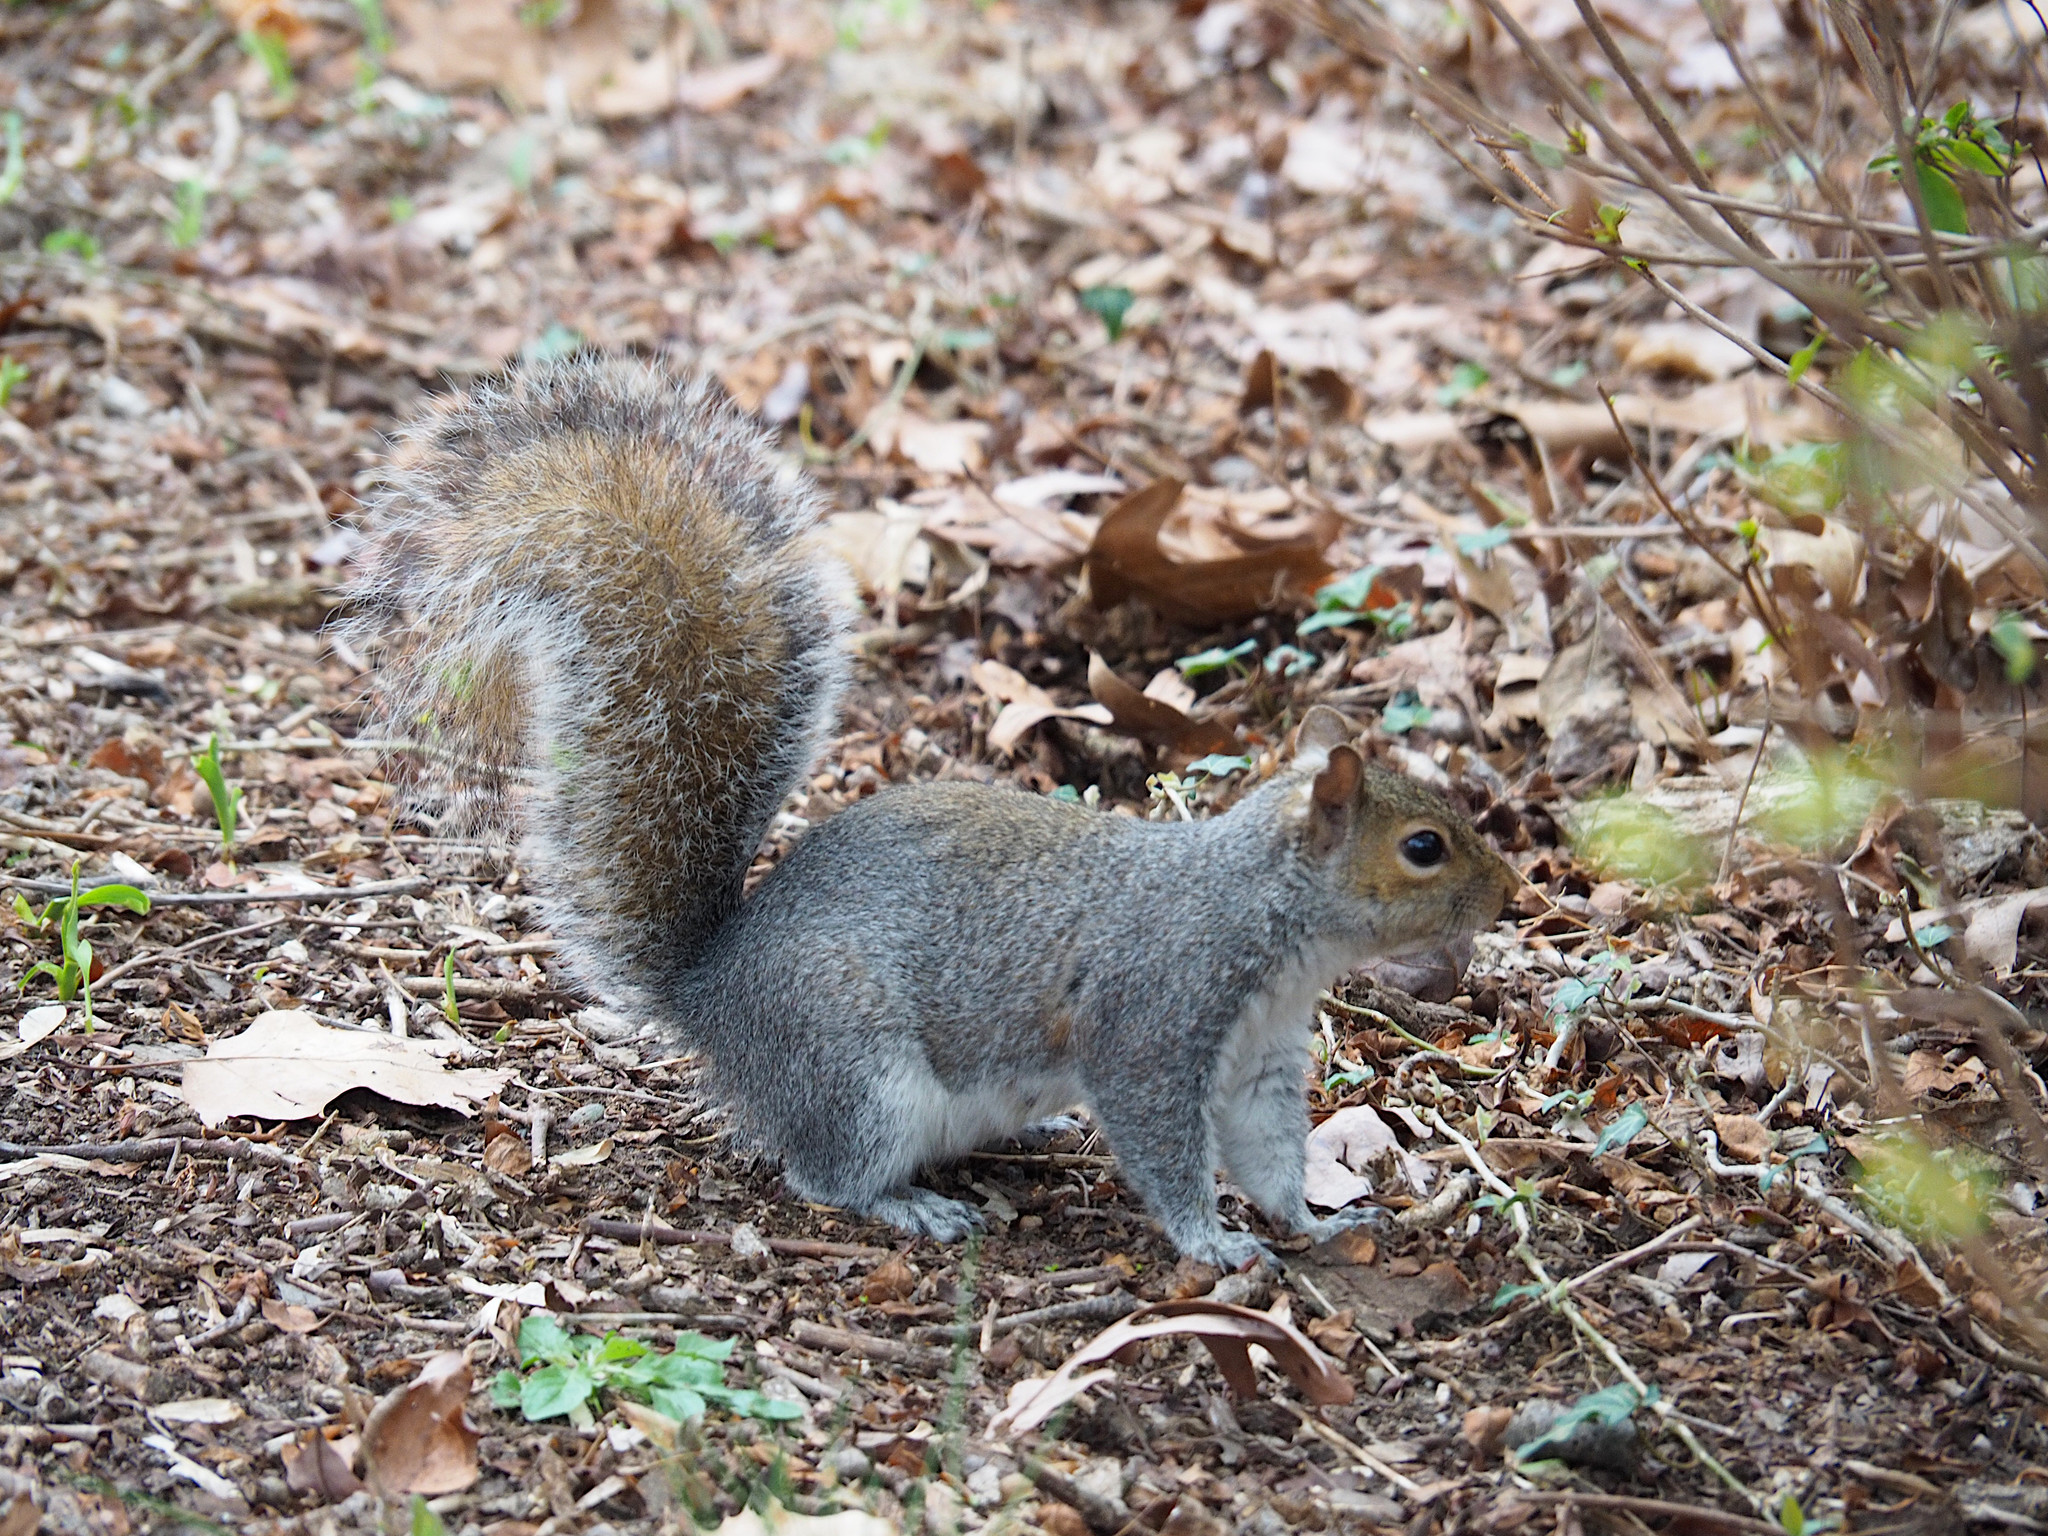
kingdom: Animalia
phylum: Chordata
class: Mammalia
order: Rodentia
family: Sciuridae
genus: Sciurus
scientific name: Sciurus carolinensis
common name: Eastern gray squirrel
